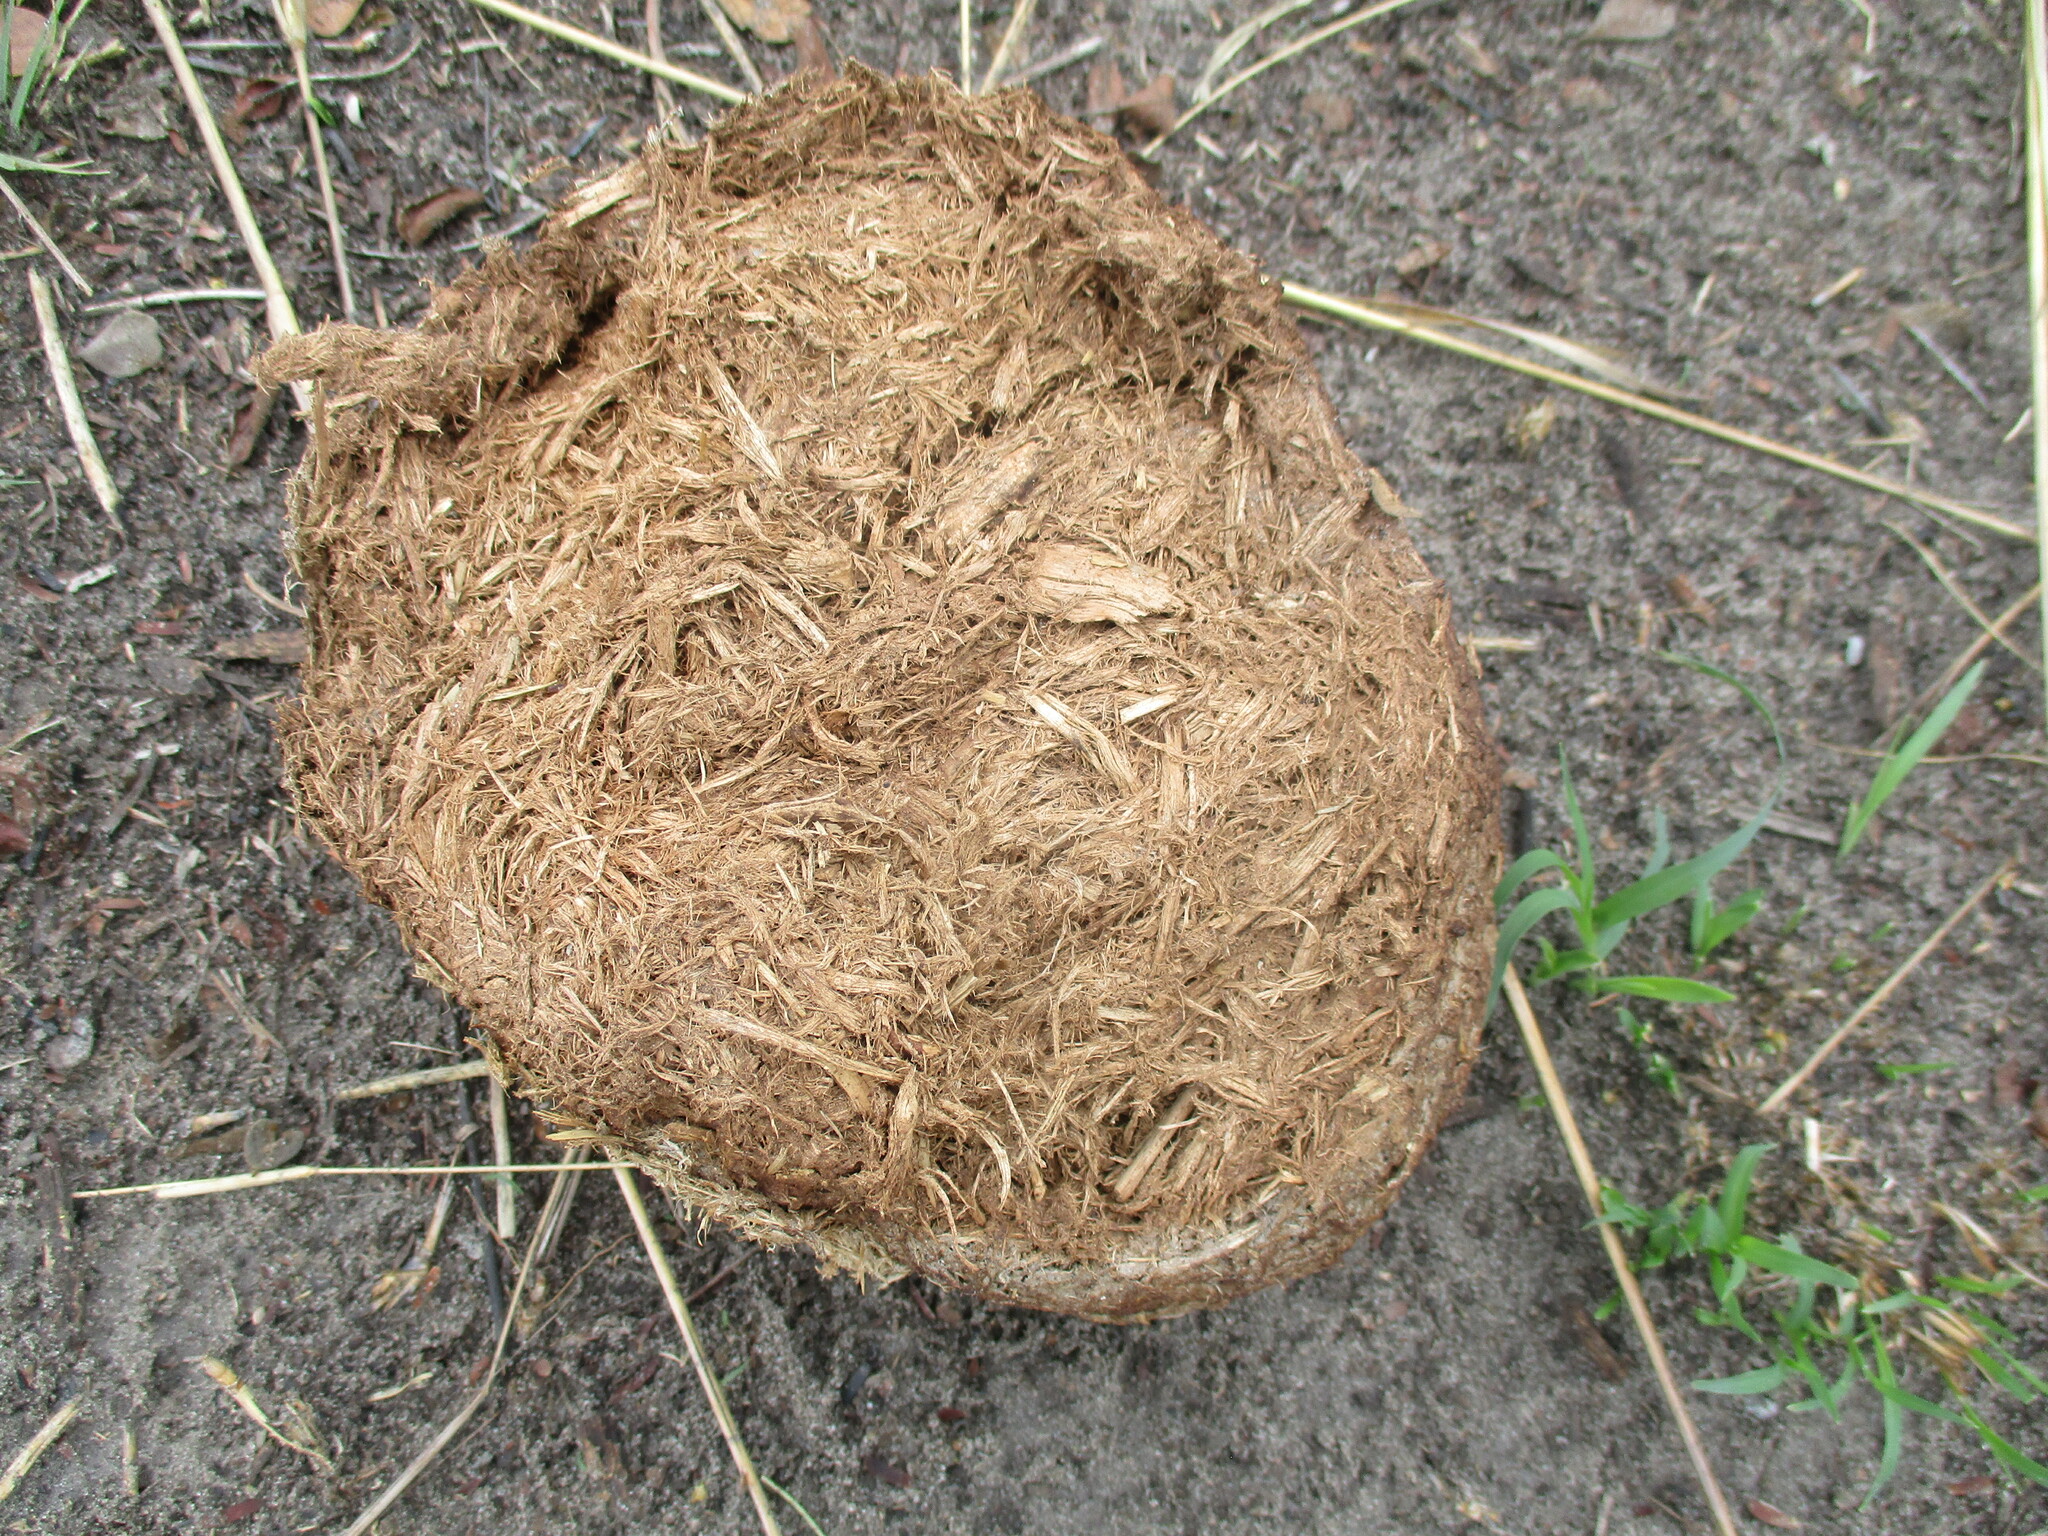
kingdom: Animalia
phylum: Chordata
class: Mammalia
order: Proboscidea
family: Elephantidae
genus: Loxodonta
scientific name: Loxodonta africana
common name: African elephant
